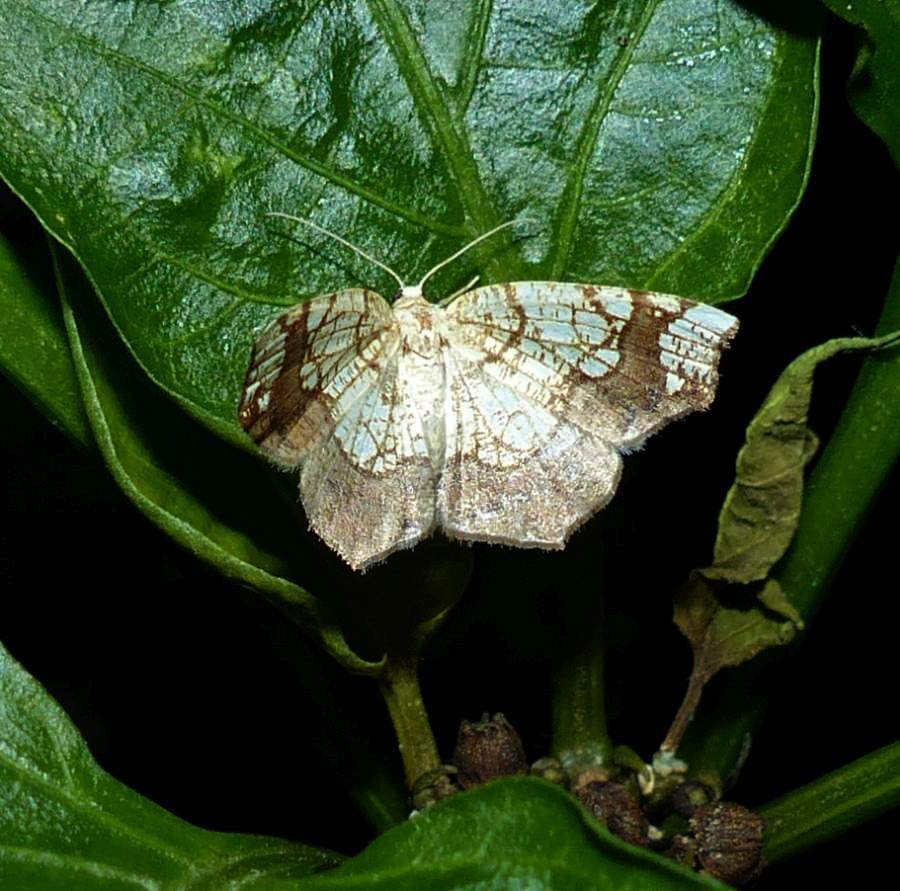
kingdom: Animalia
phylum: Arthropoda
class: Insecta
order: Lepidoptera
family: Geometridae
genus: Nematocampa
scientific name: Nematocampa resistaria
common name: Horned spanworm moth
